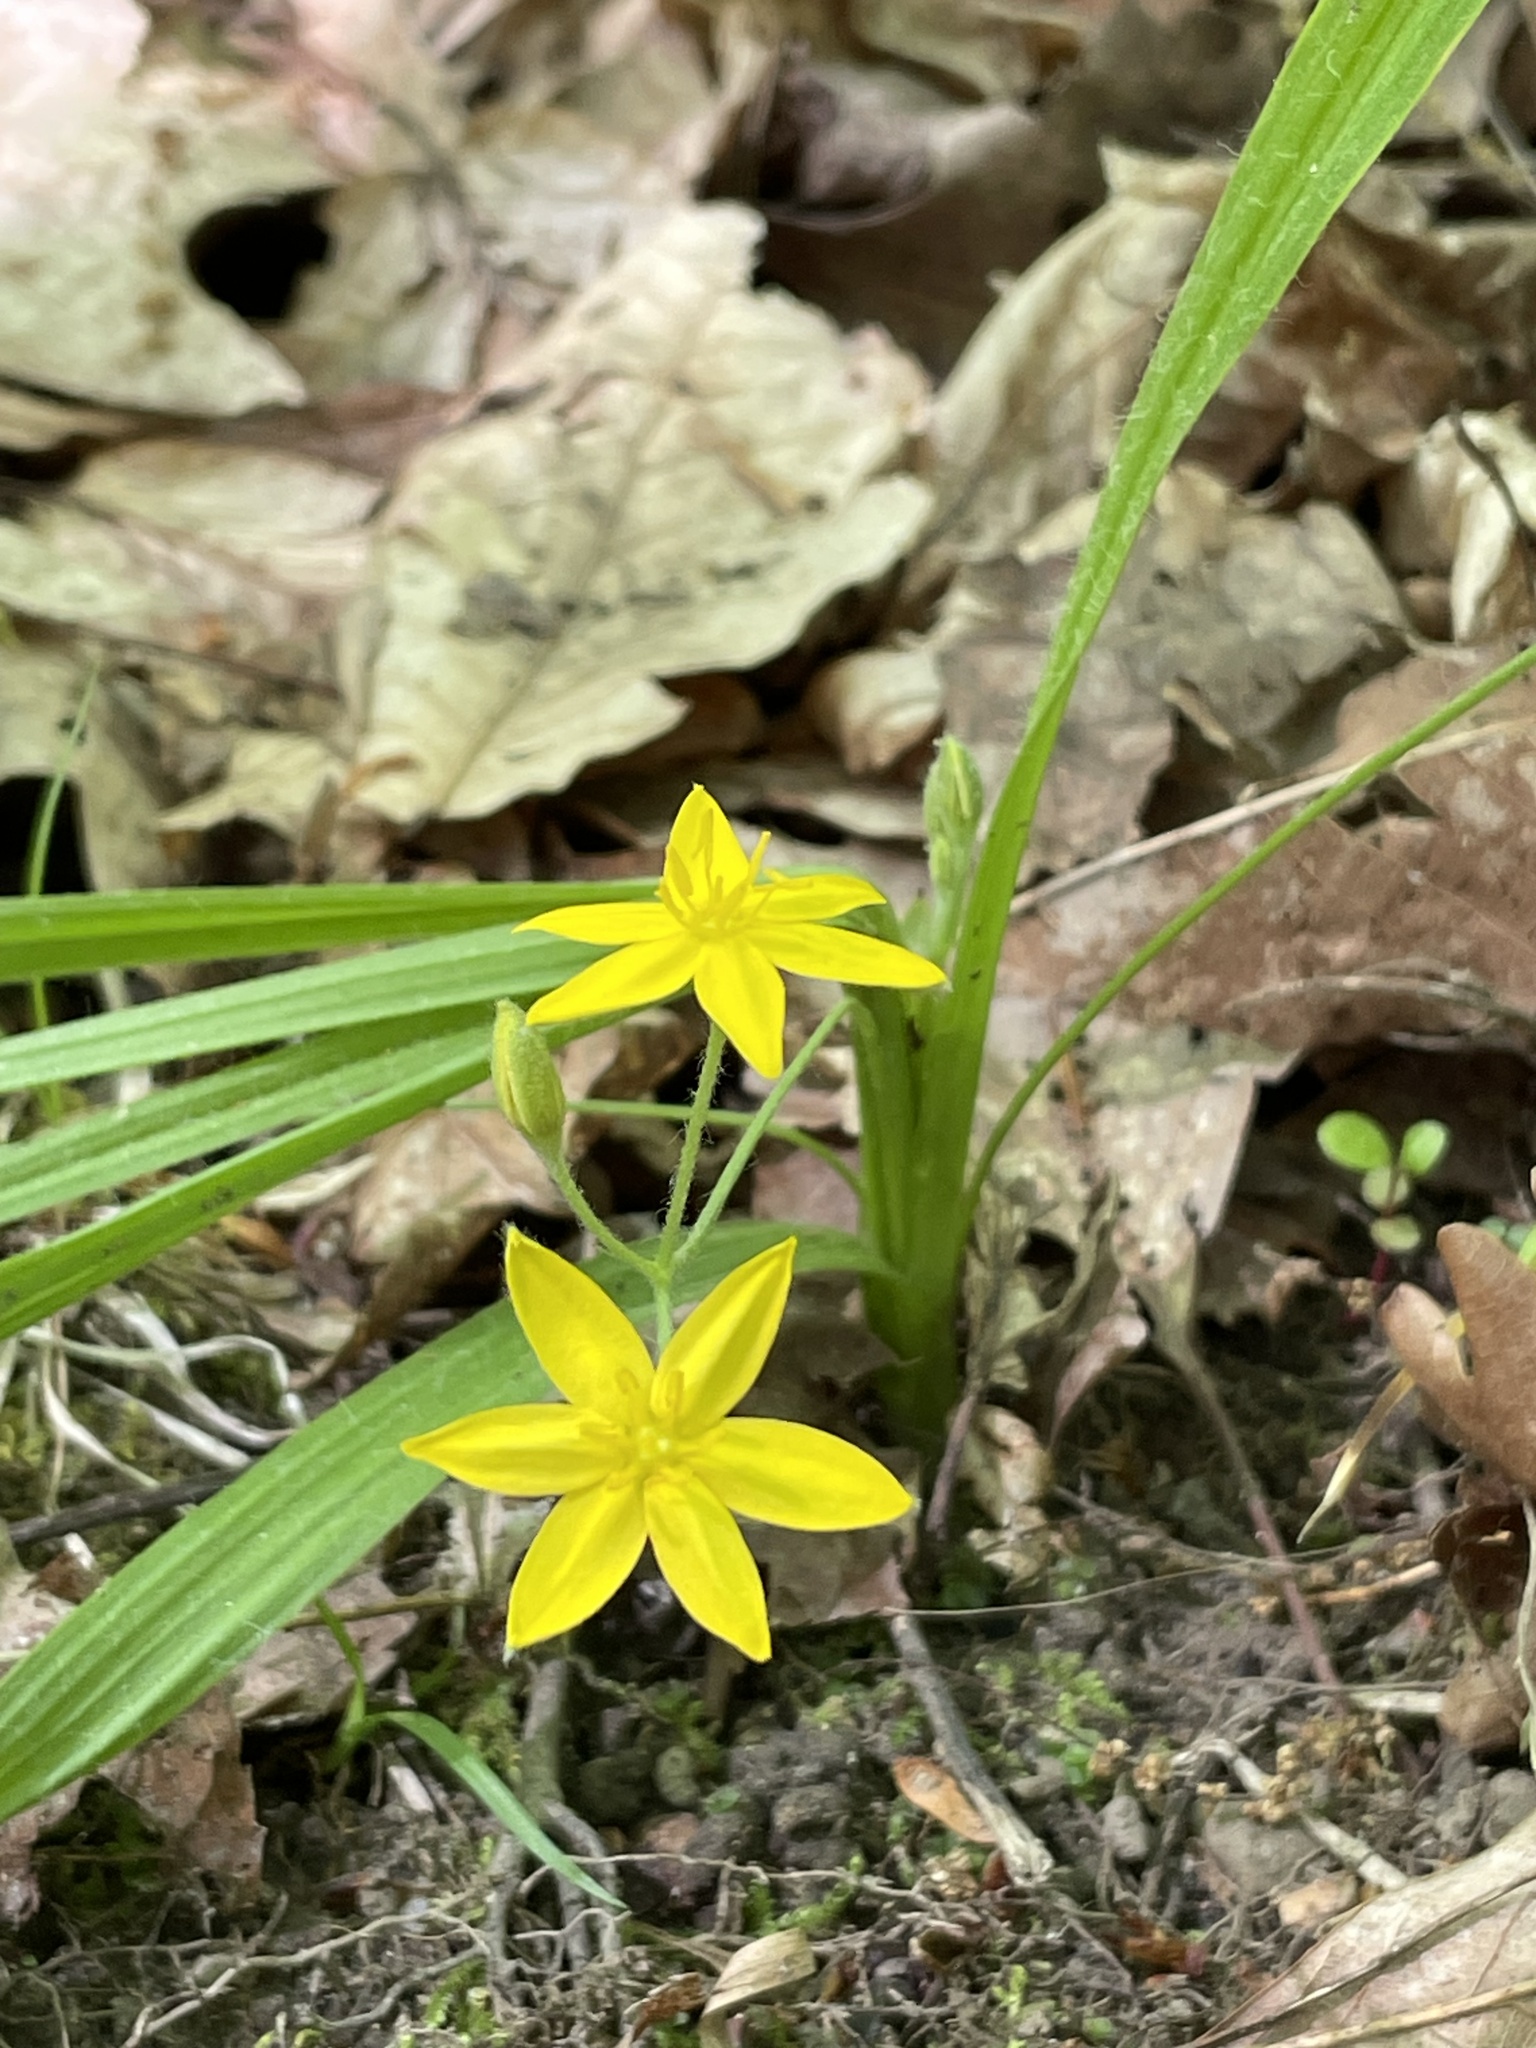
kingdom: Plantae
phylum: Tracheophyta
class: Liliopsida
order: Asparagales
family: Hypoxidaceae
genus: Hypoxis
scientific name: Hypoxis hirsuta
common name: Common goldstar
